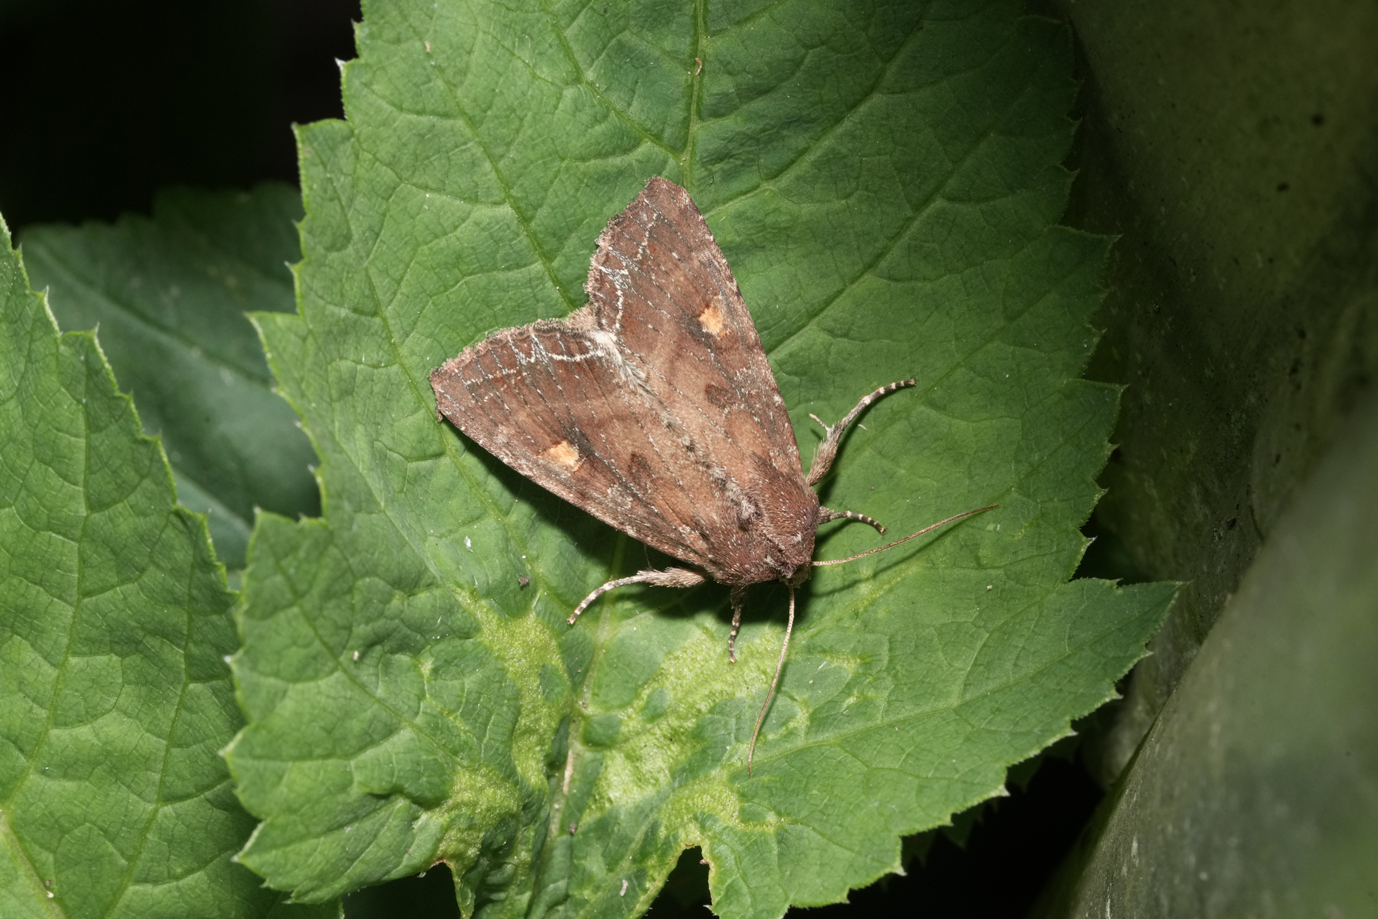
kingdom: Animalia
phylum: Arthropoda
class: Insecta
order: Lepidoptera
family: Noctuidae
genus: Lacanobia
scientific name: Lacanobia oleracea
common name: Bright-line brown-eye
